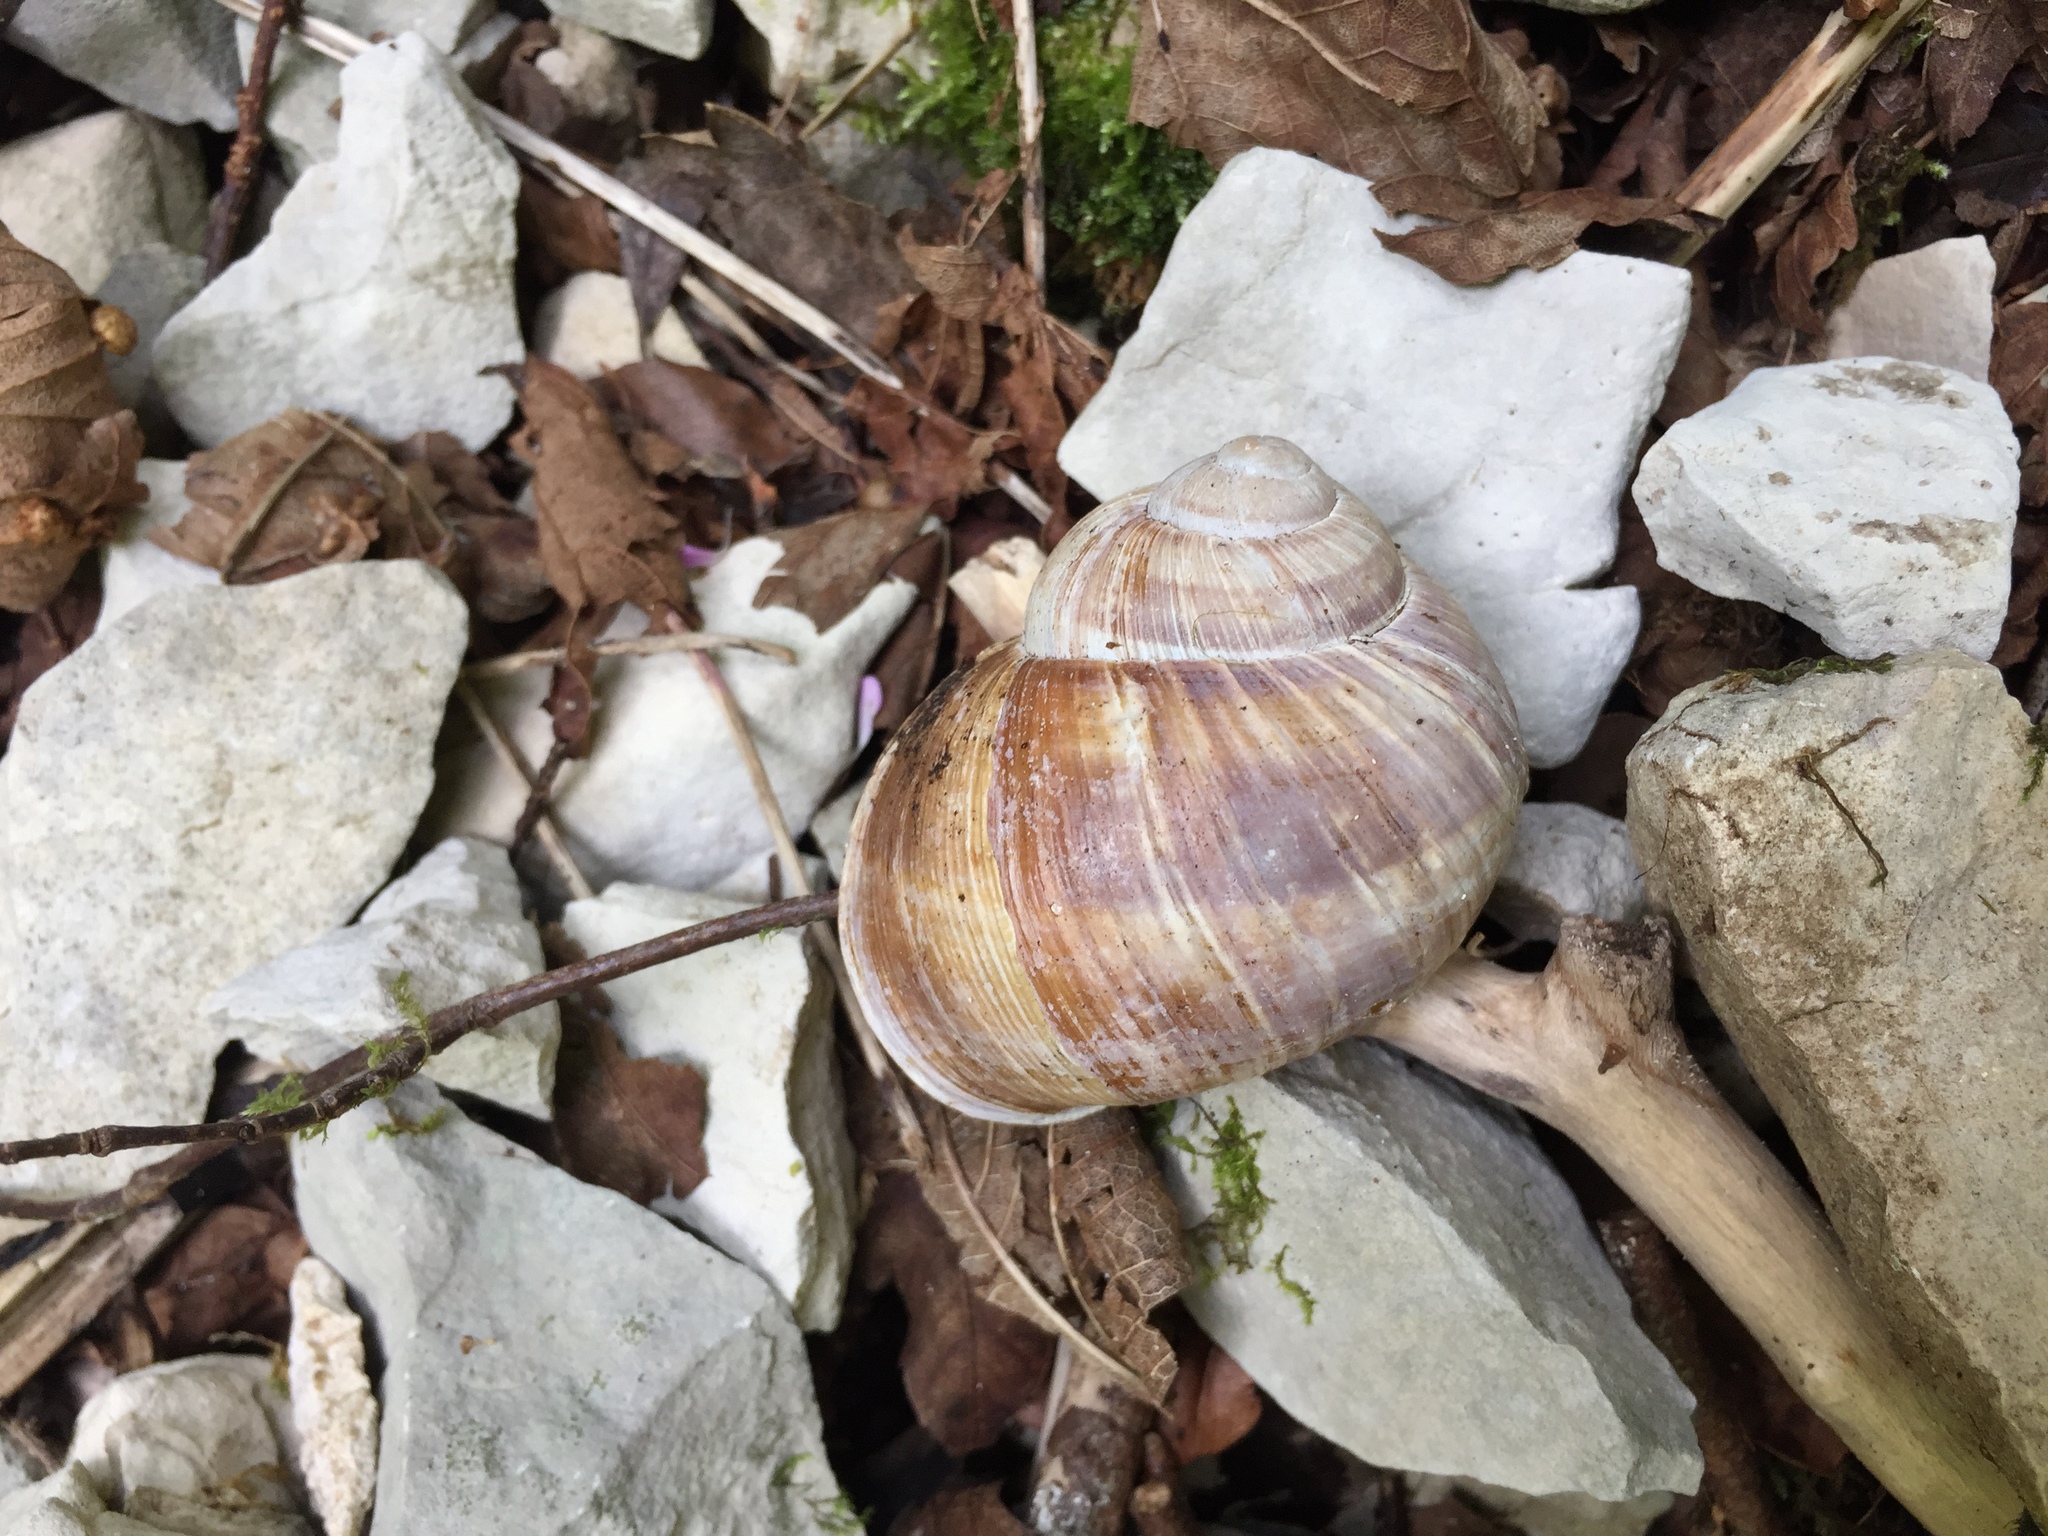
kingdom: Animalia
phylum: Mollusca
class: Gastropoda
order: Stylommatophora
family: Helicidae
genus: Helix
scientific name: Helix pomatia
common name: Roman snail
